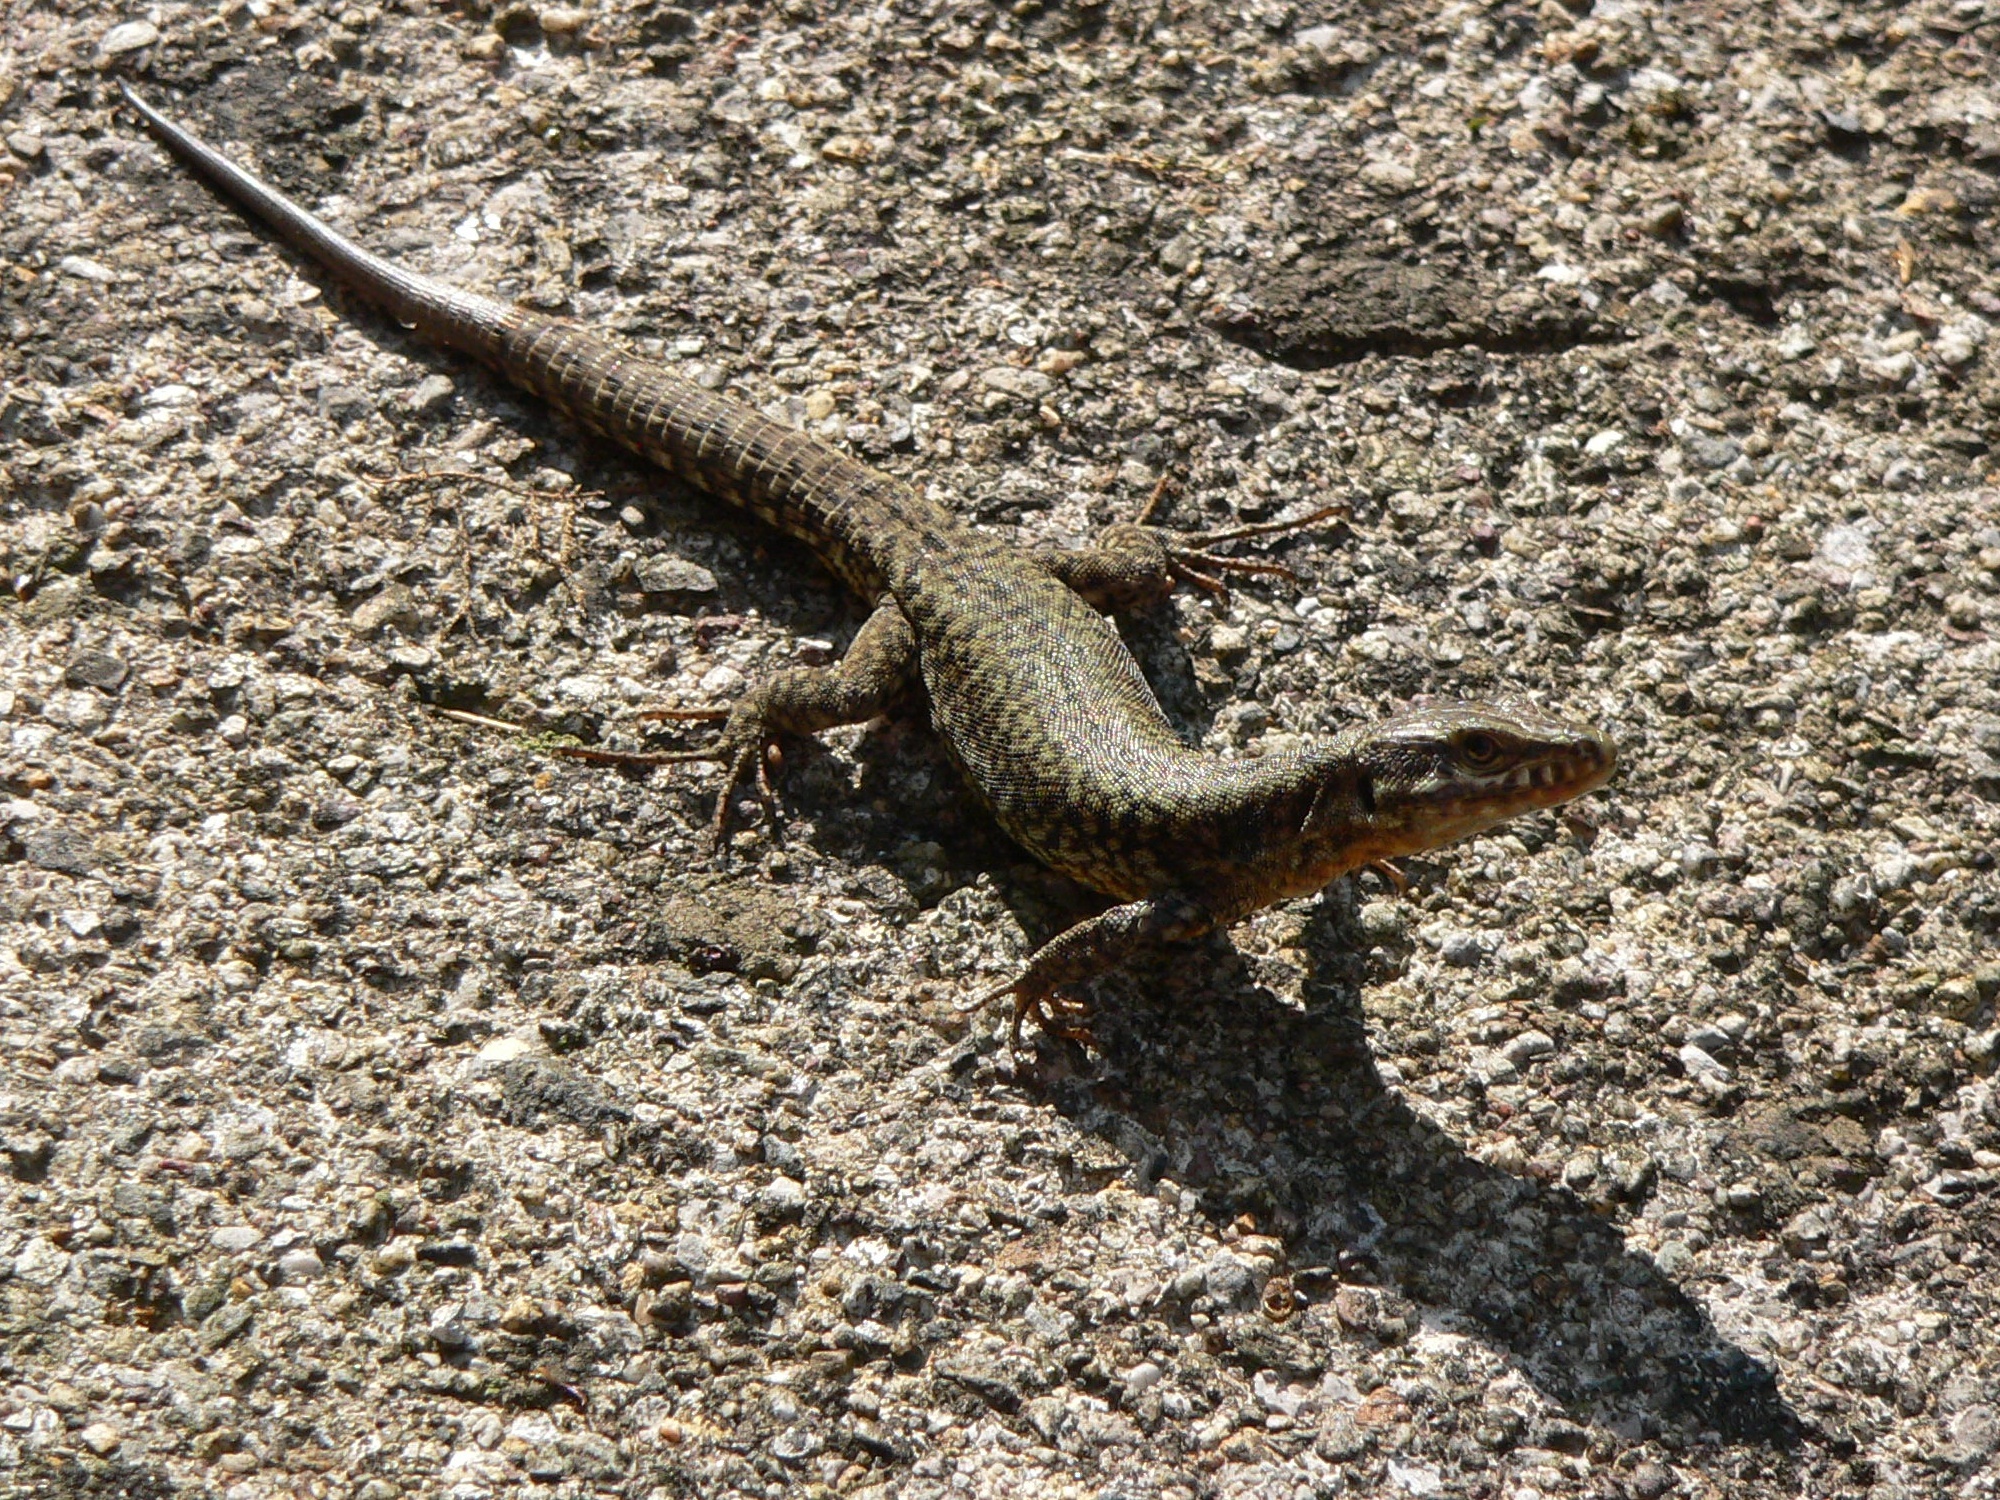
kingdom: Animalia
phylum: Chordata
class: Squamata
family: Lacertidae
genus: Podarcis
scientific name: Podarcis muralis
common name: Common wall lizard
